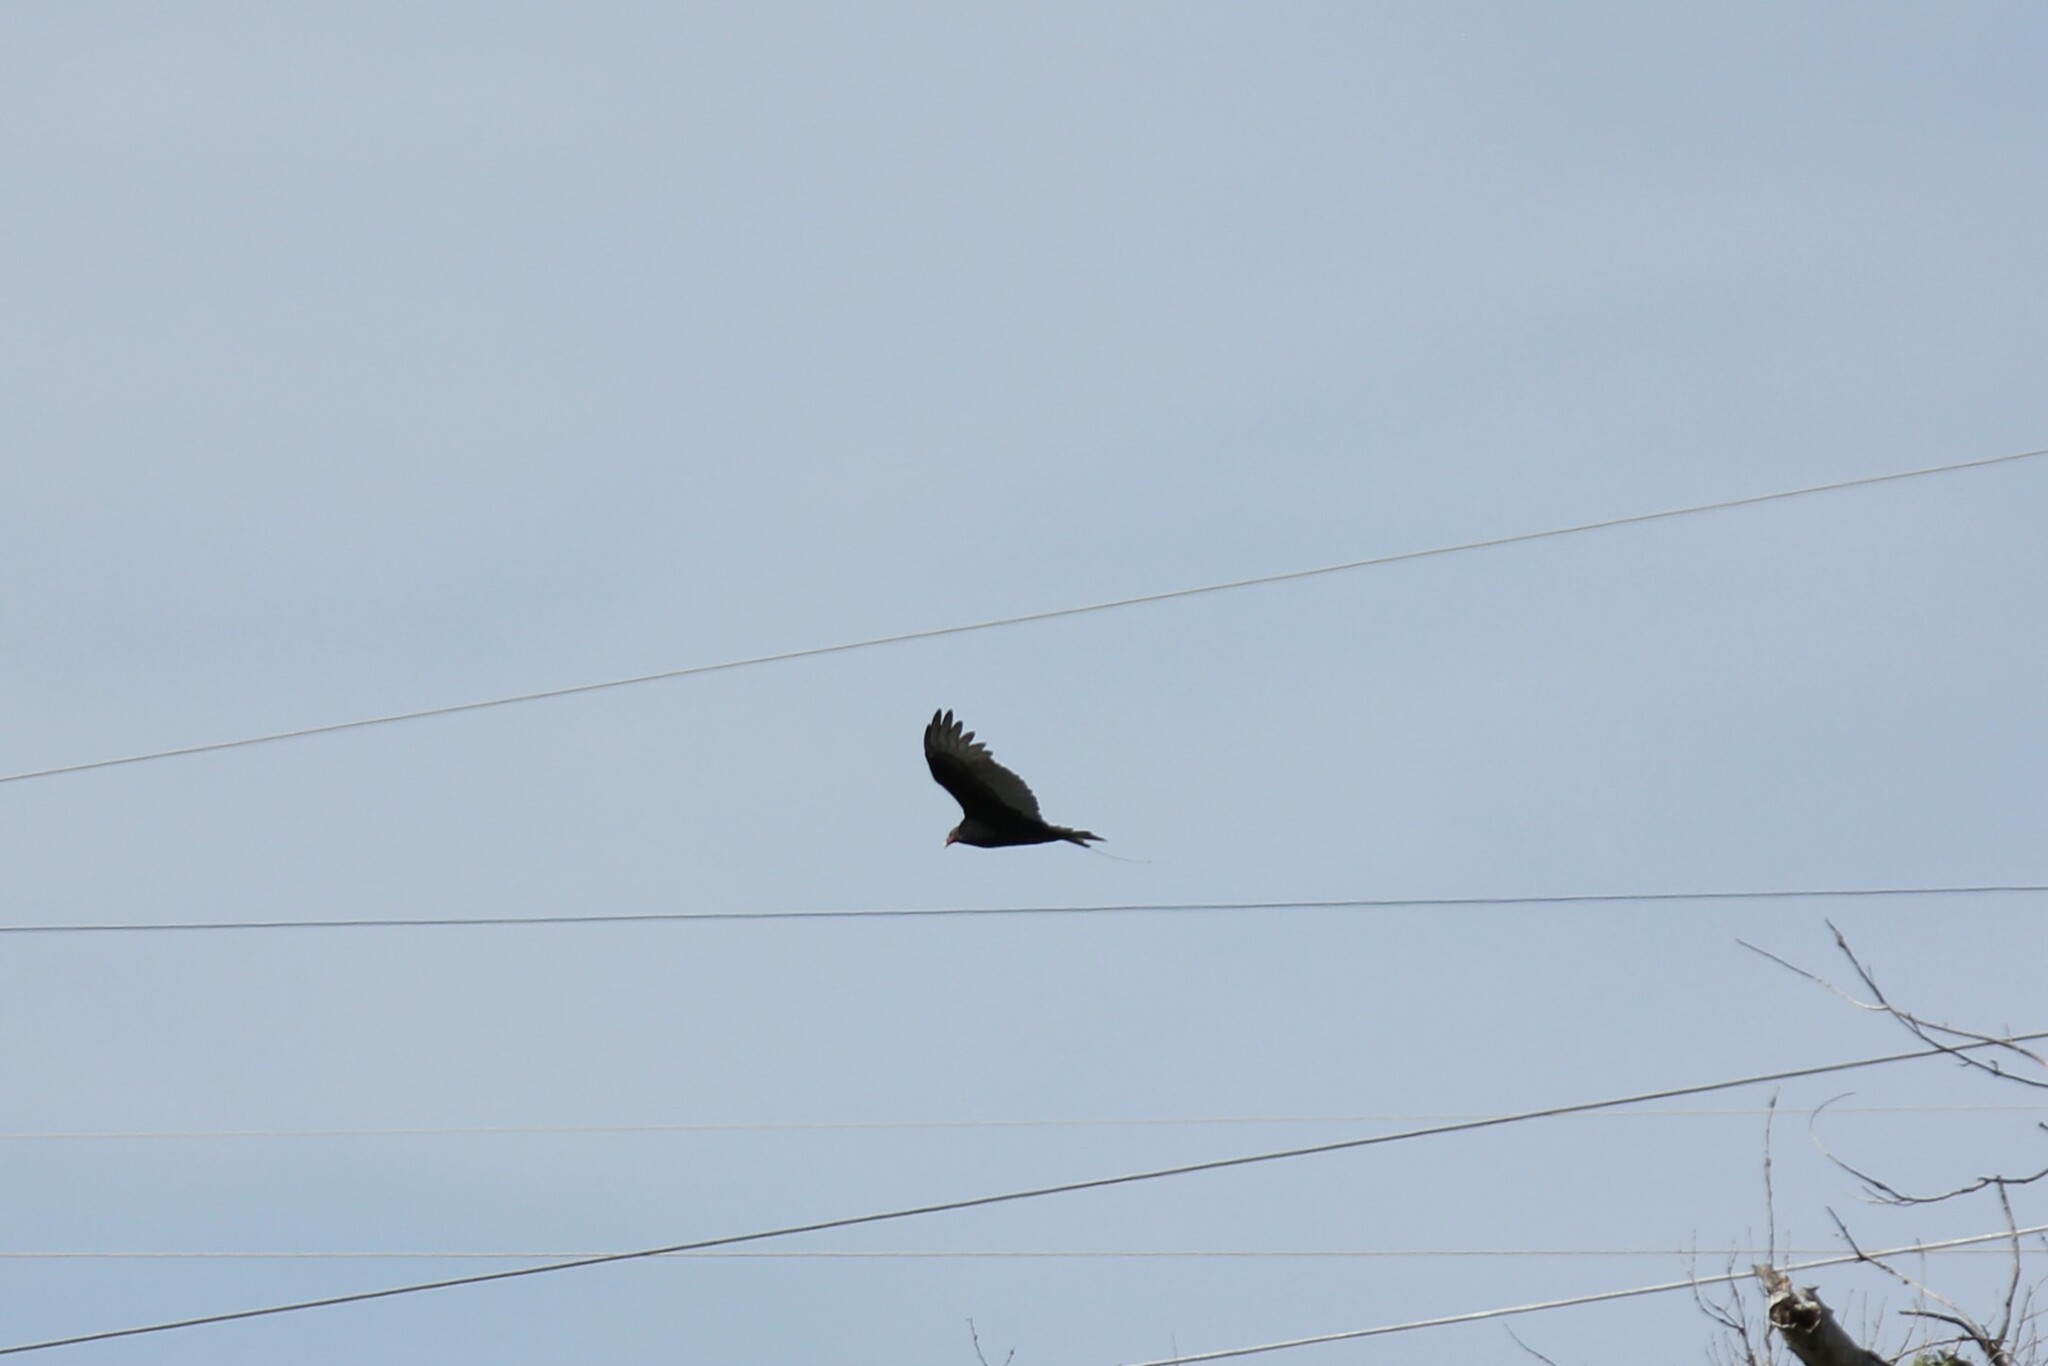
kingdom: Animalia
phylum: Chordata
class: Aves
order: Accipitriformes
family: Cathartidae
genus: Cathartes
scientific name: Cathartes aura
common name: Turkey vulture
